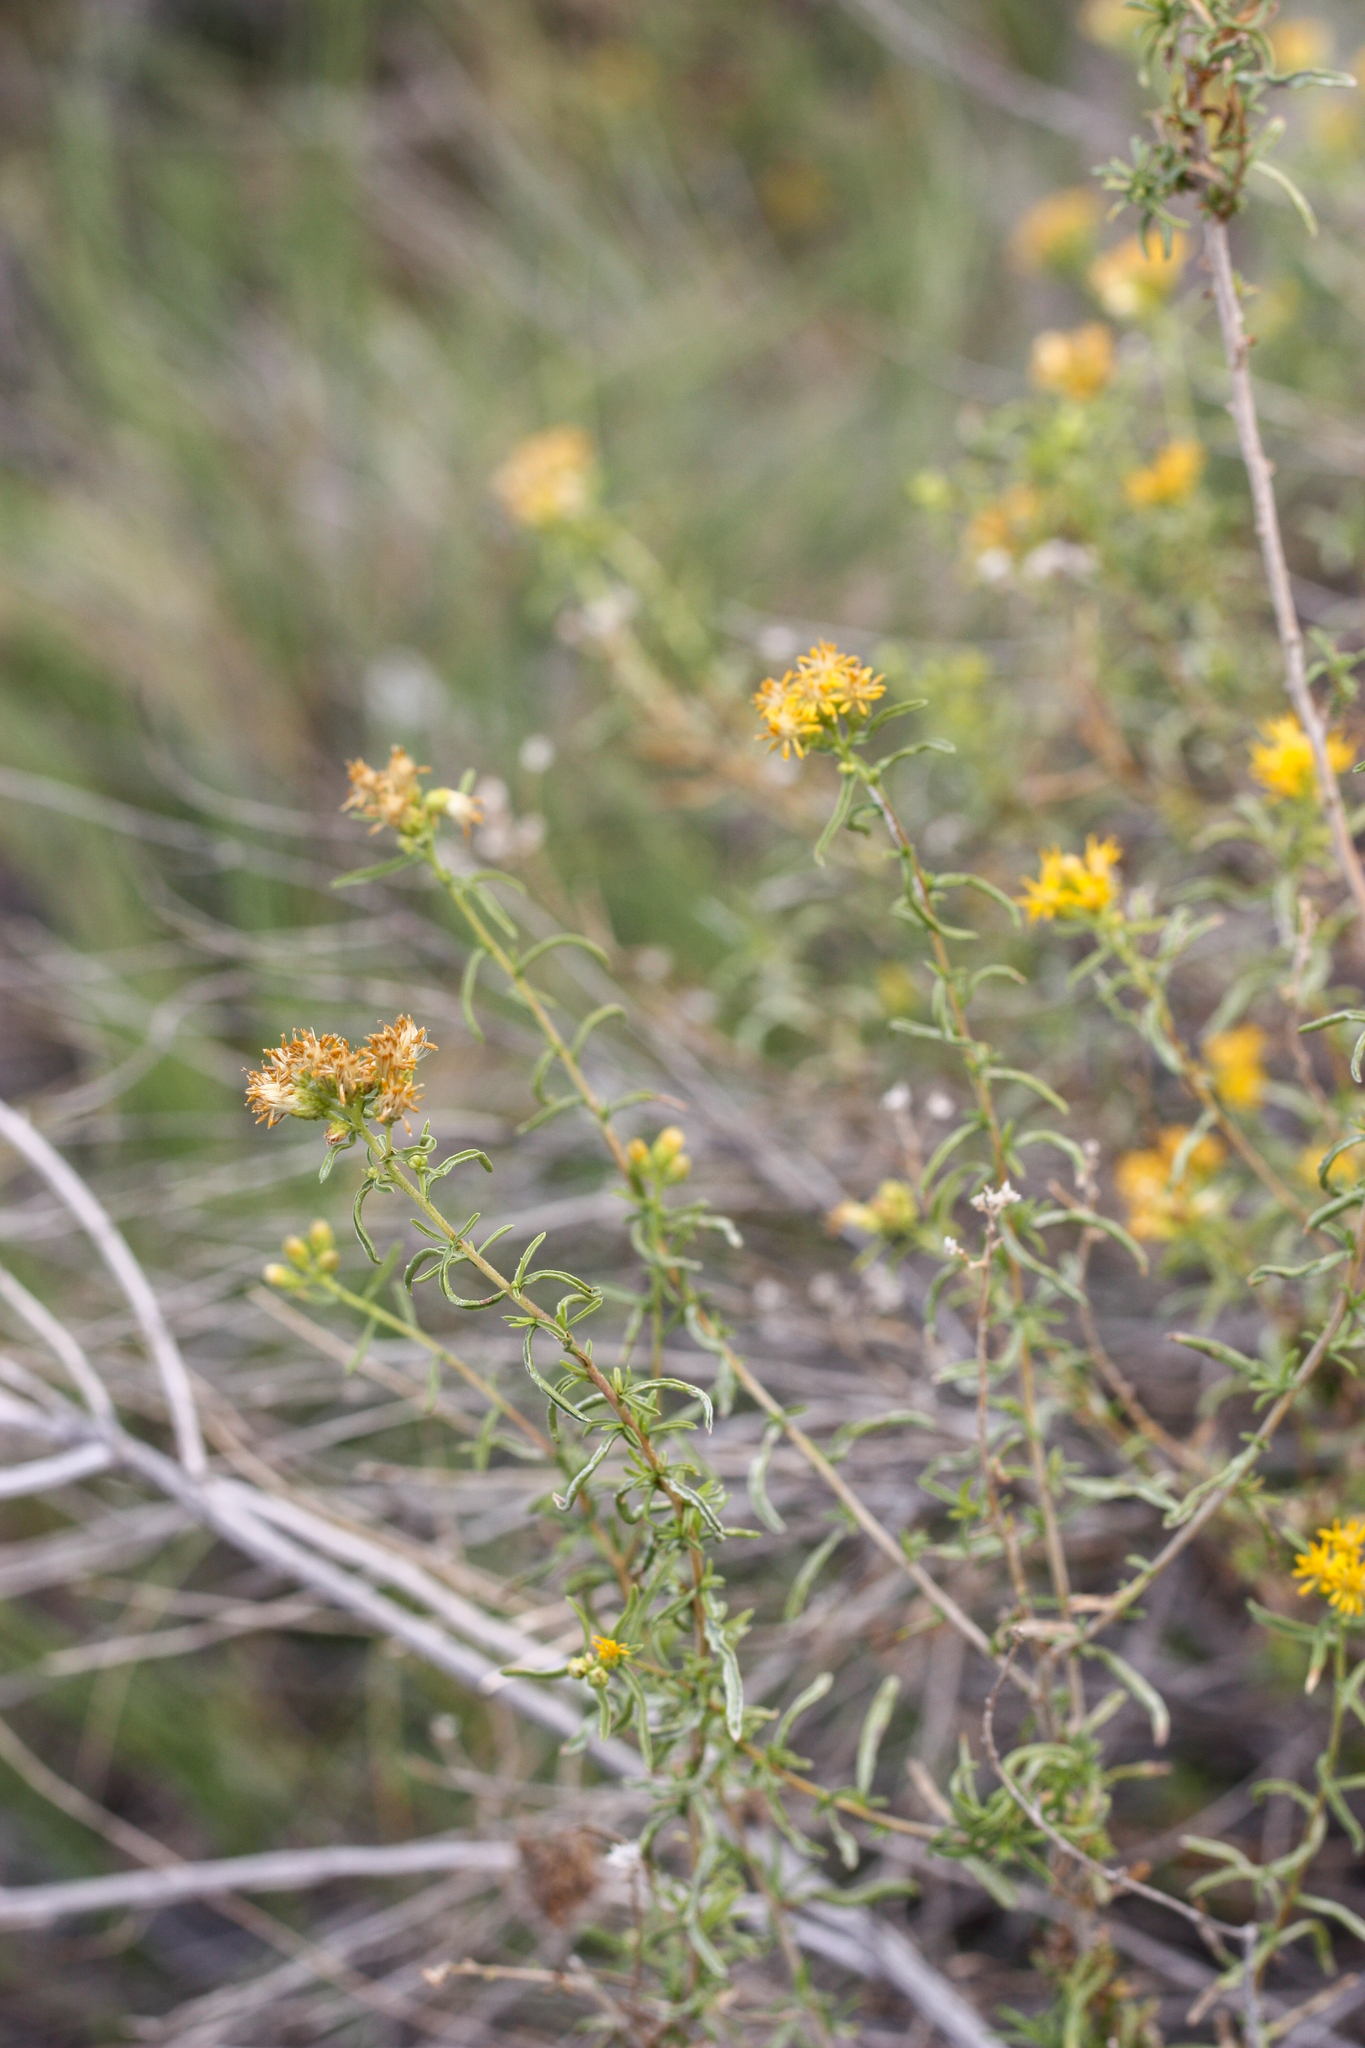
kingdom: Plantae
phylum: Tracheophyta
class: Magnoliopsida
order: Asterales
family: Asteraceae
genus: Isocoma
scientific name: Isocoma acradenia
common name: Alkali jimmyweed
